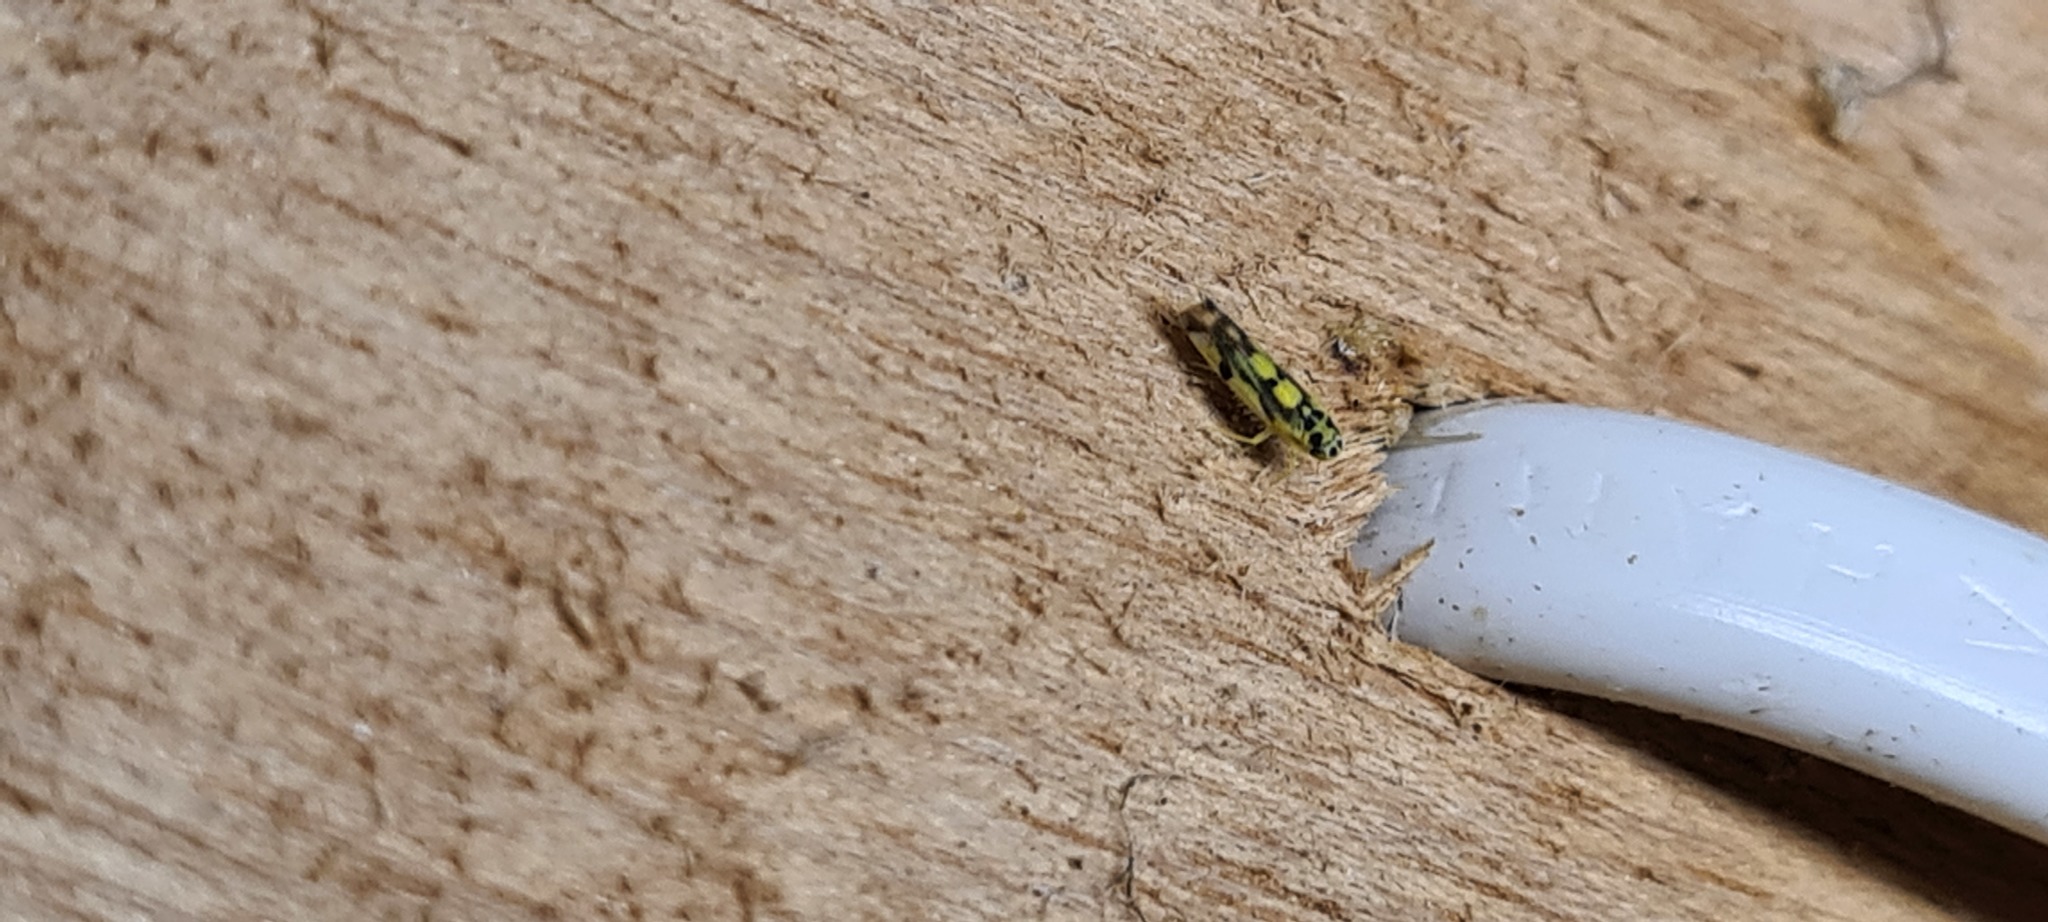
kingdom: Animalia
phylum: Arthropoda
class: Insecta
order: Hemiptera
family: Cicadellidae
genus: Eupteryx
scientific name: Eupteryx aurata
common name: Leafhopper
